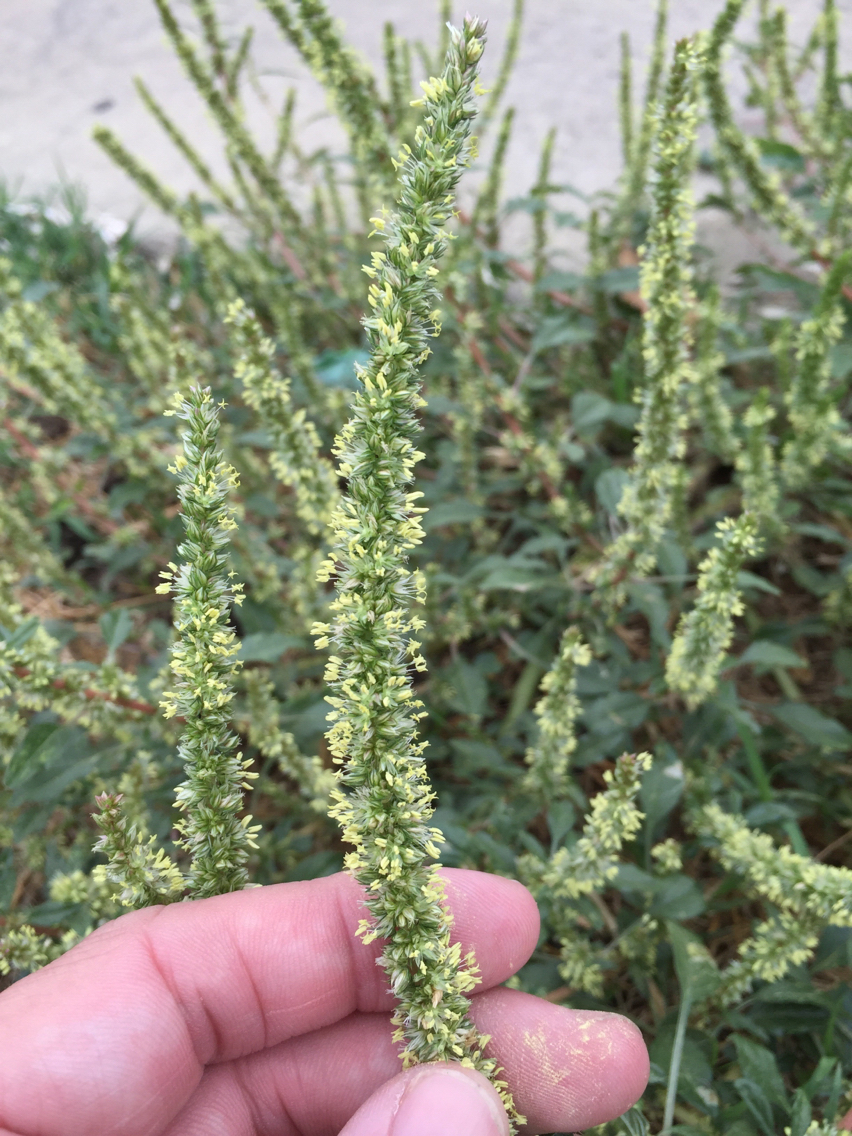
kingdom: Plantae
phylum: Tracheophyta
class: Magnoliopsida
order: Caryophyllales
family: Amaranthaceae
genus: Amaranthus
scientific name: Amaranthus palmeri
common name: Dioecious amaranth
